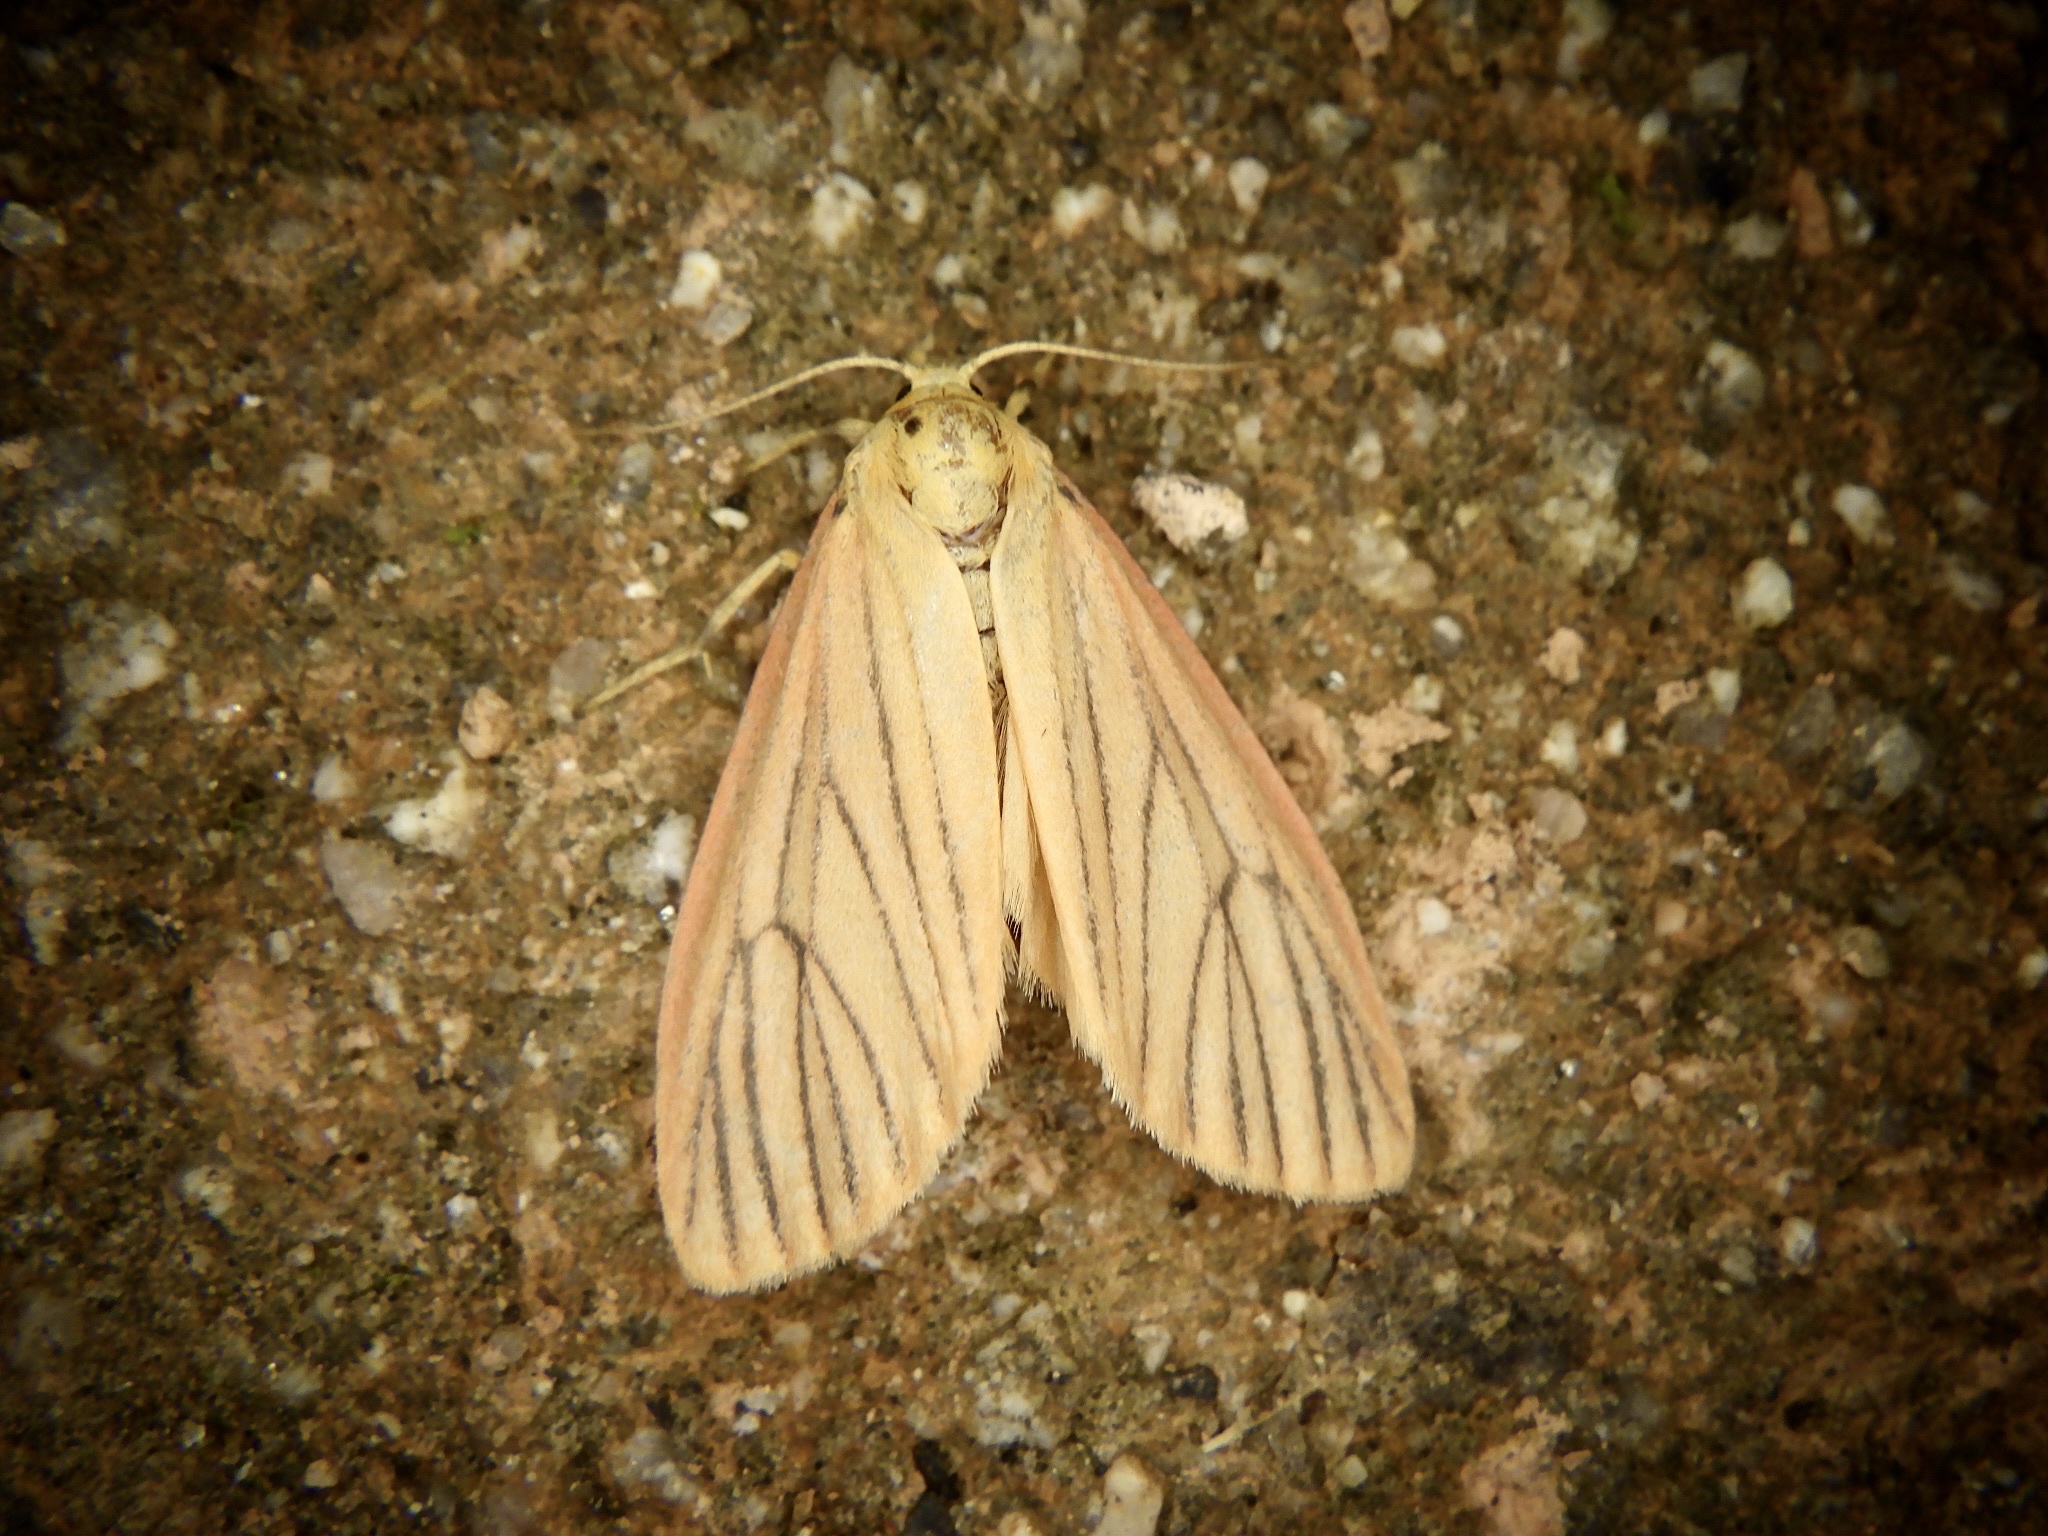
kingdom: Animalia
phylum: Arthropoda
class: Insecta
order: Lepidoptera
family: Erebidae
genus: Melanaema
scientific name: Melanaema venata
